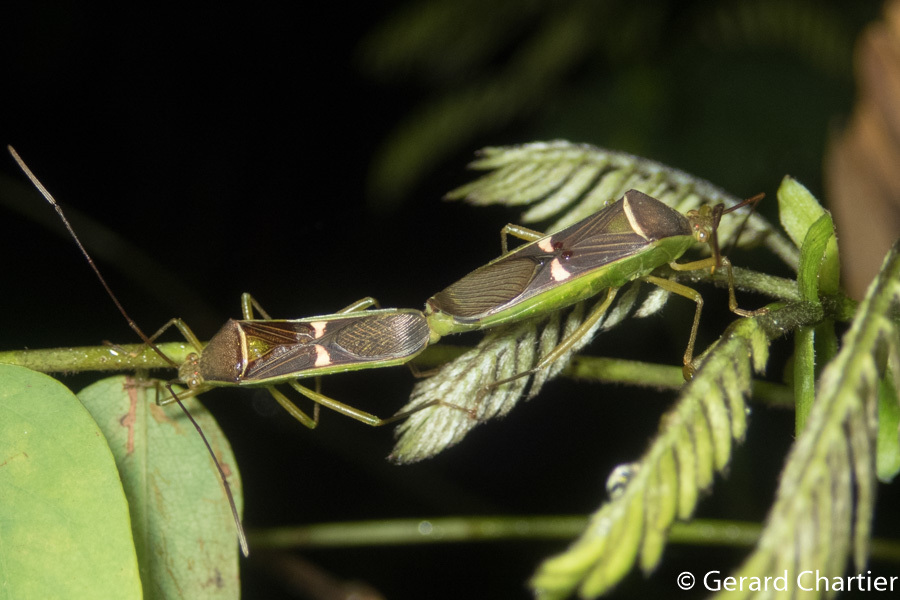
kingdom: Animalia
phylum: Arthropoda
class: Insecta
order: Hemiptera
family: Coreidae
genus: Homoeocerus
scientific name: Homoeocerus meniscus
